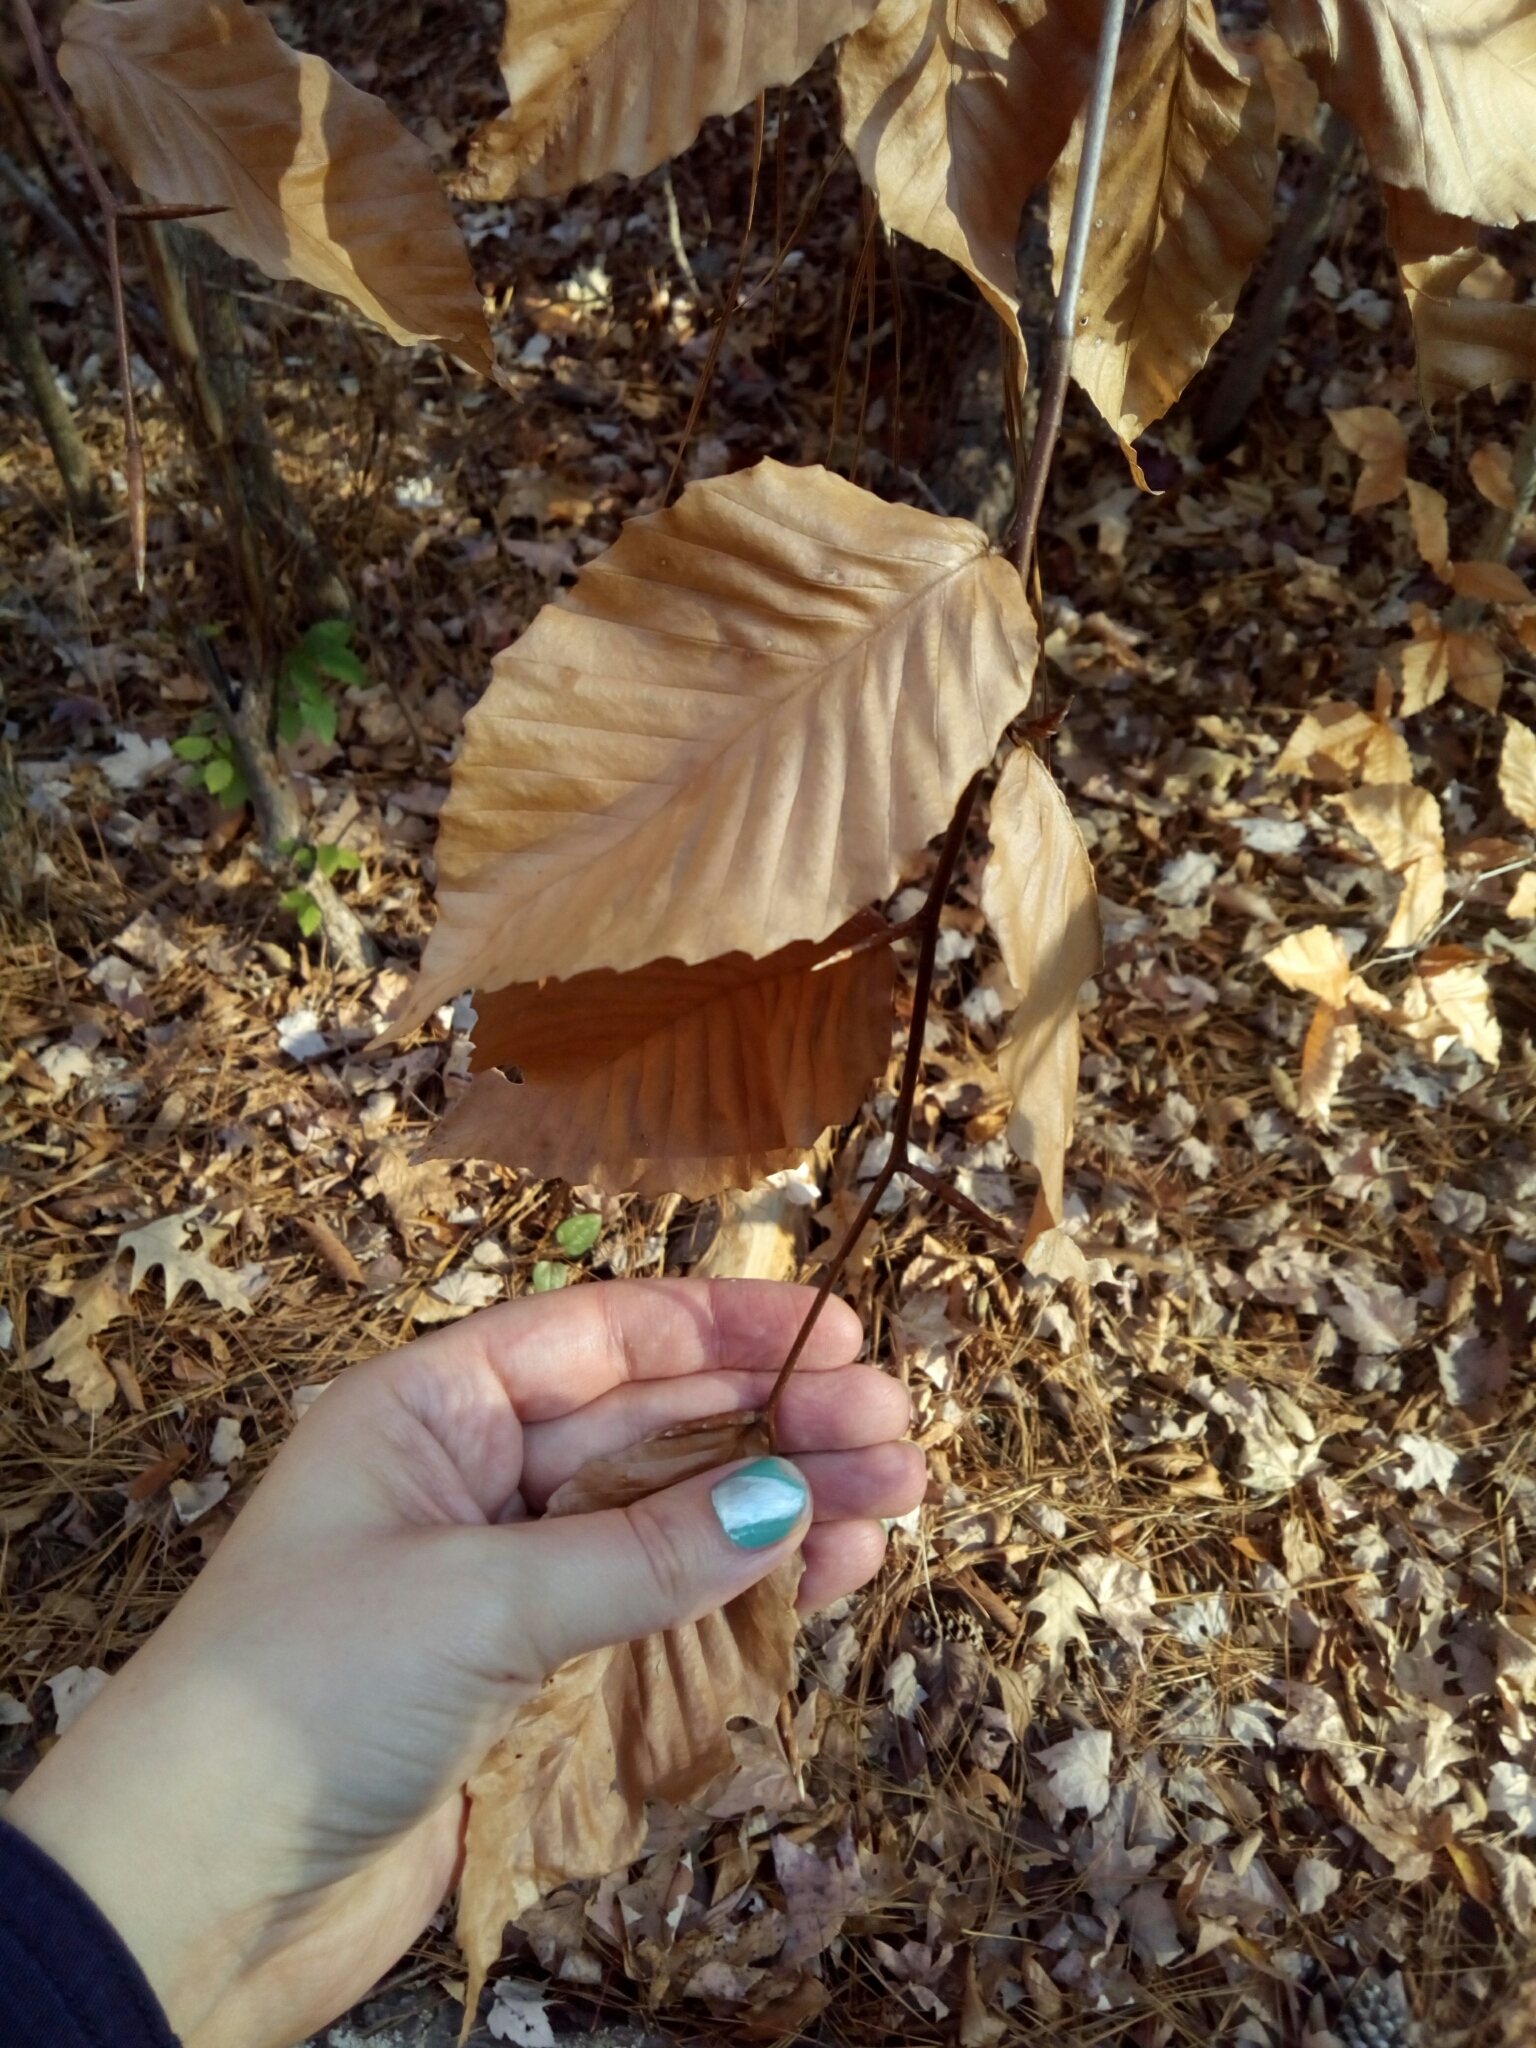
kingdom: Plantae
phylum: Tracheophyta
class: Magnoliopsida
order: Fagales
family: Fagaceae
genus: Fagus
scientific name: Fagus grandifolia
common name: American beech
